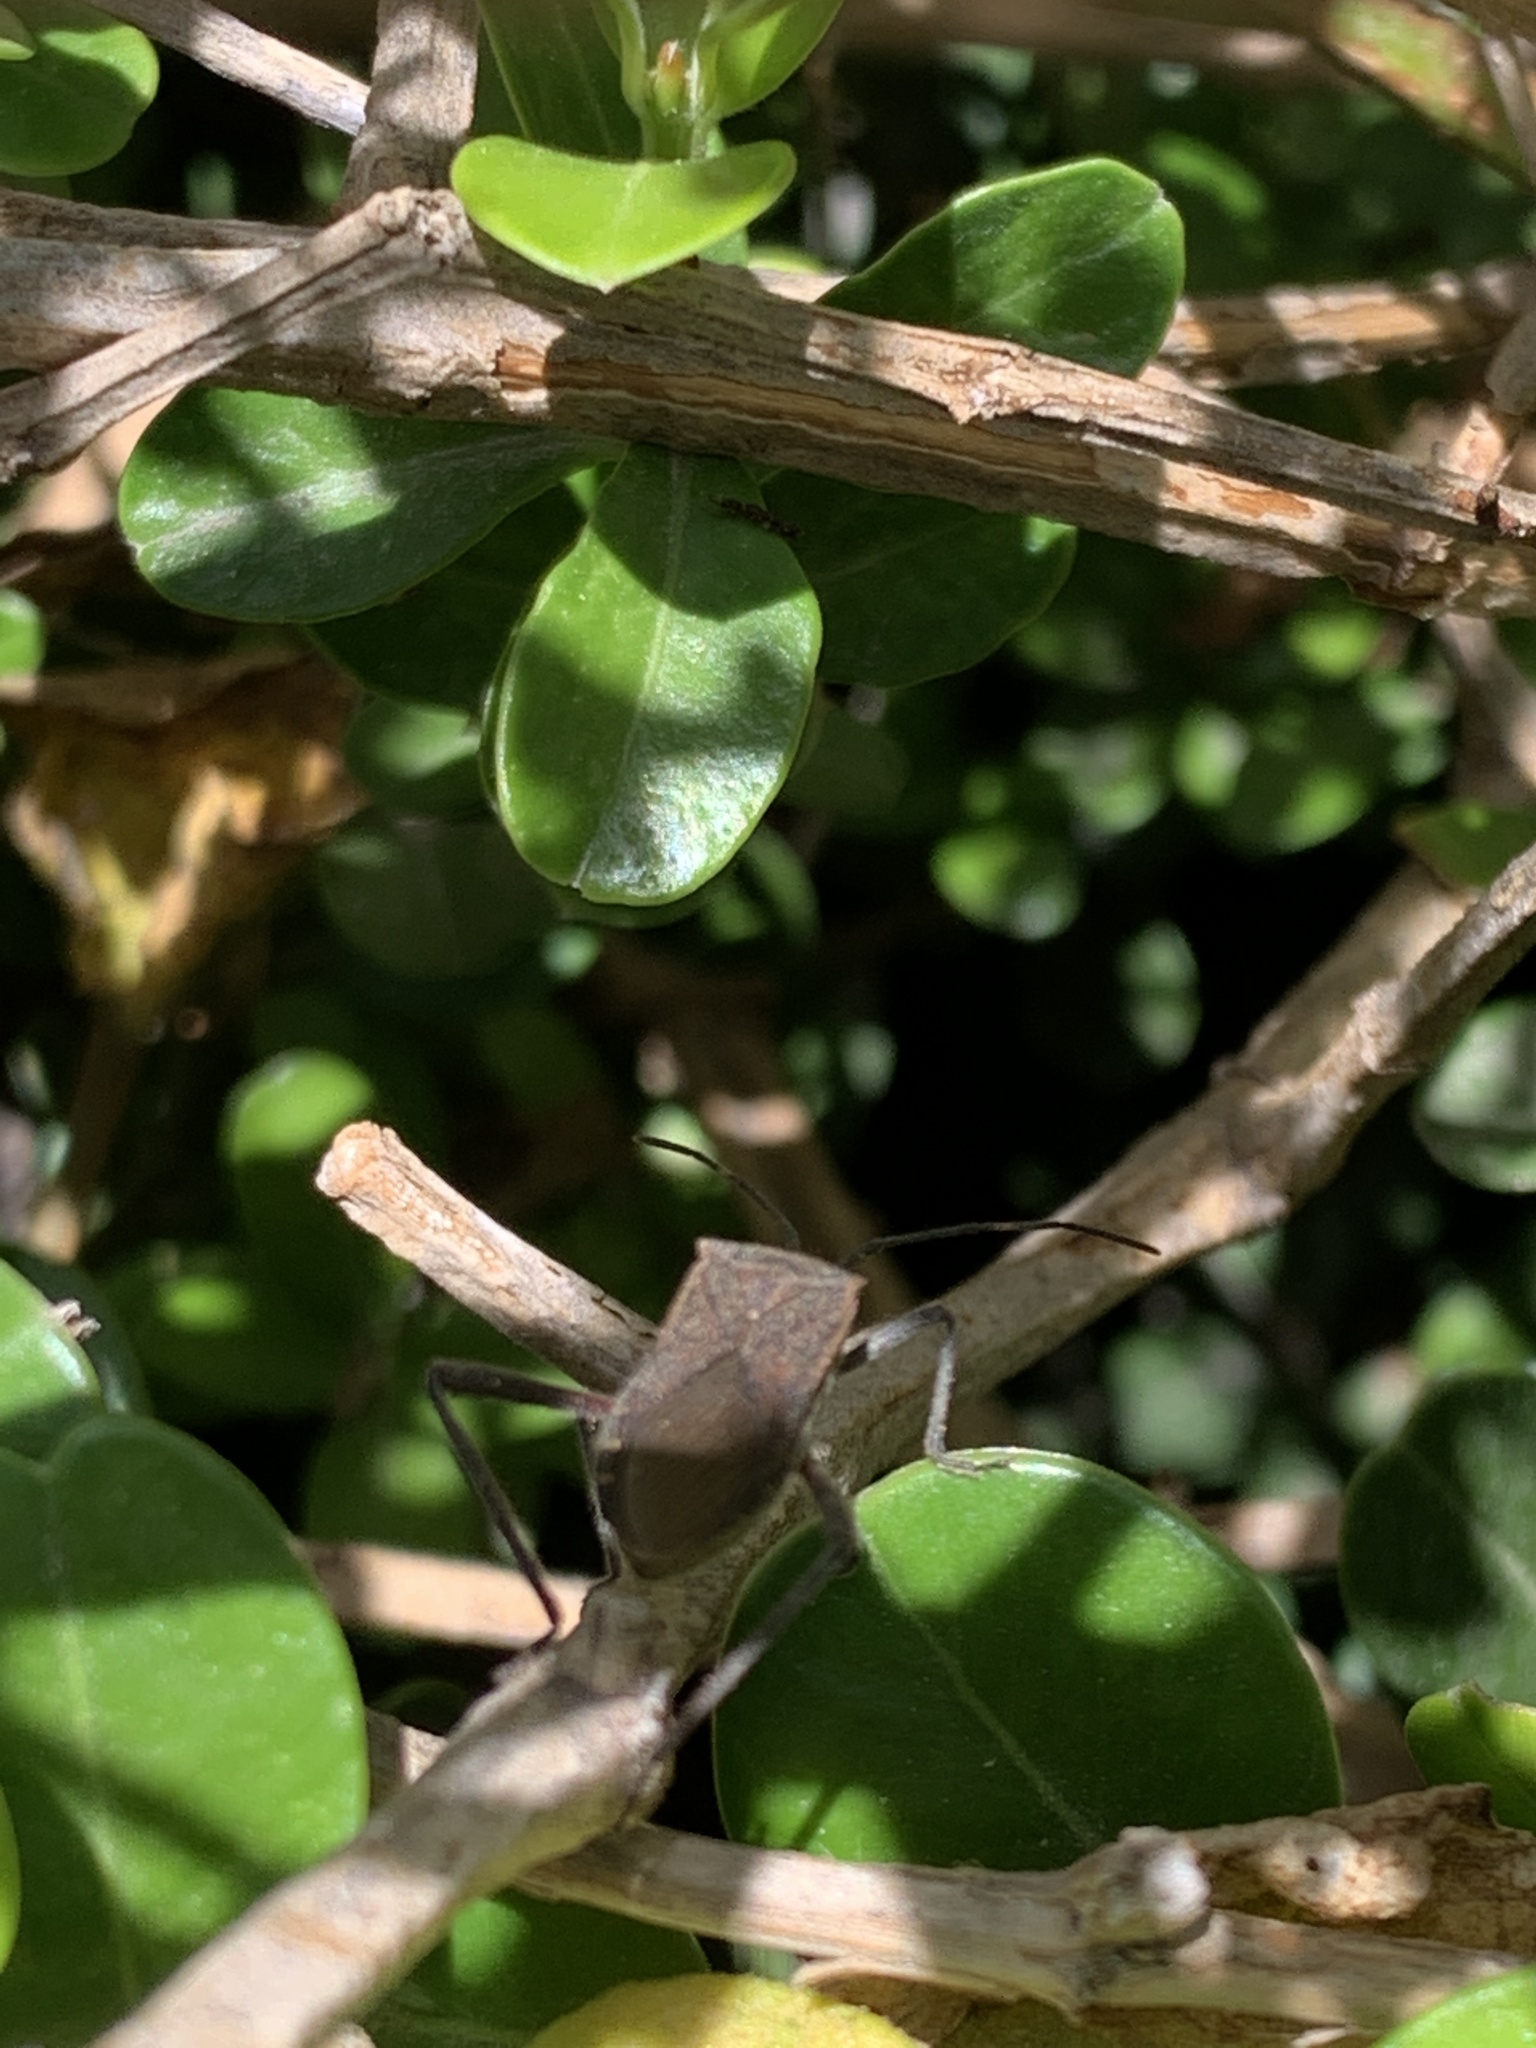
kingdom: Animalia
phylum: Arthropoda
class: Insecta
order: Hemiptera
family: Coreidae
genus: Phthiacnemia
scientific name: Phthiacnemia picta
